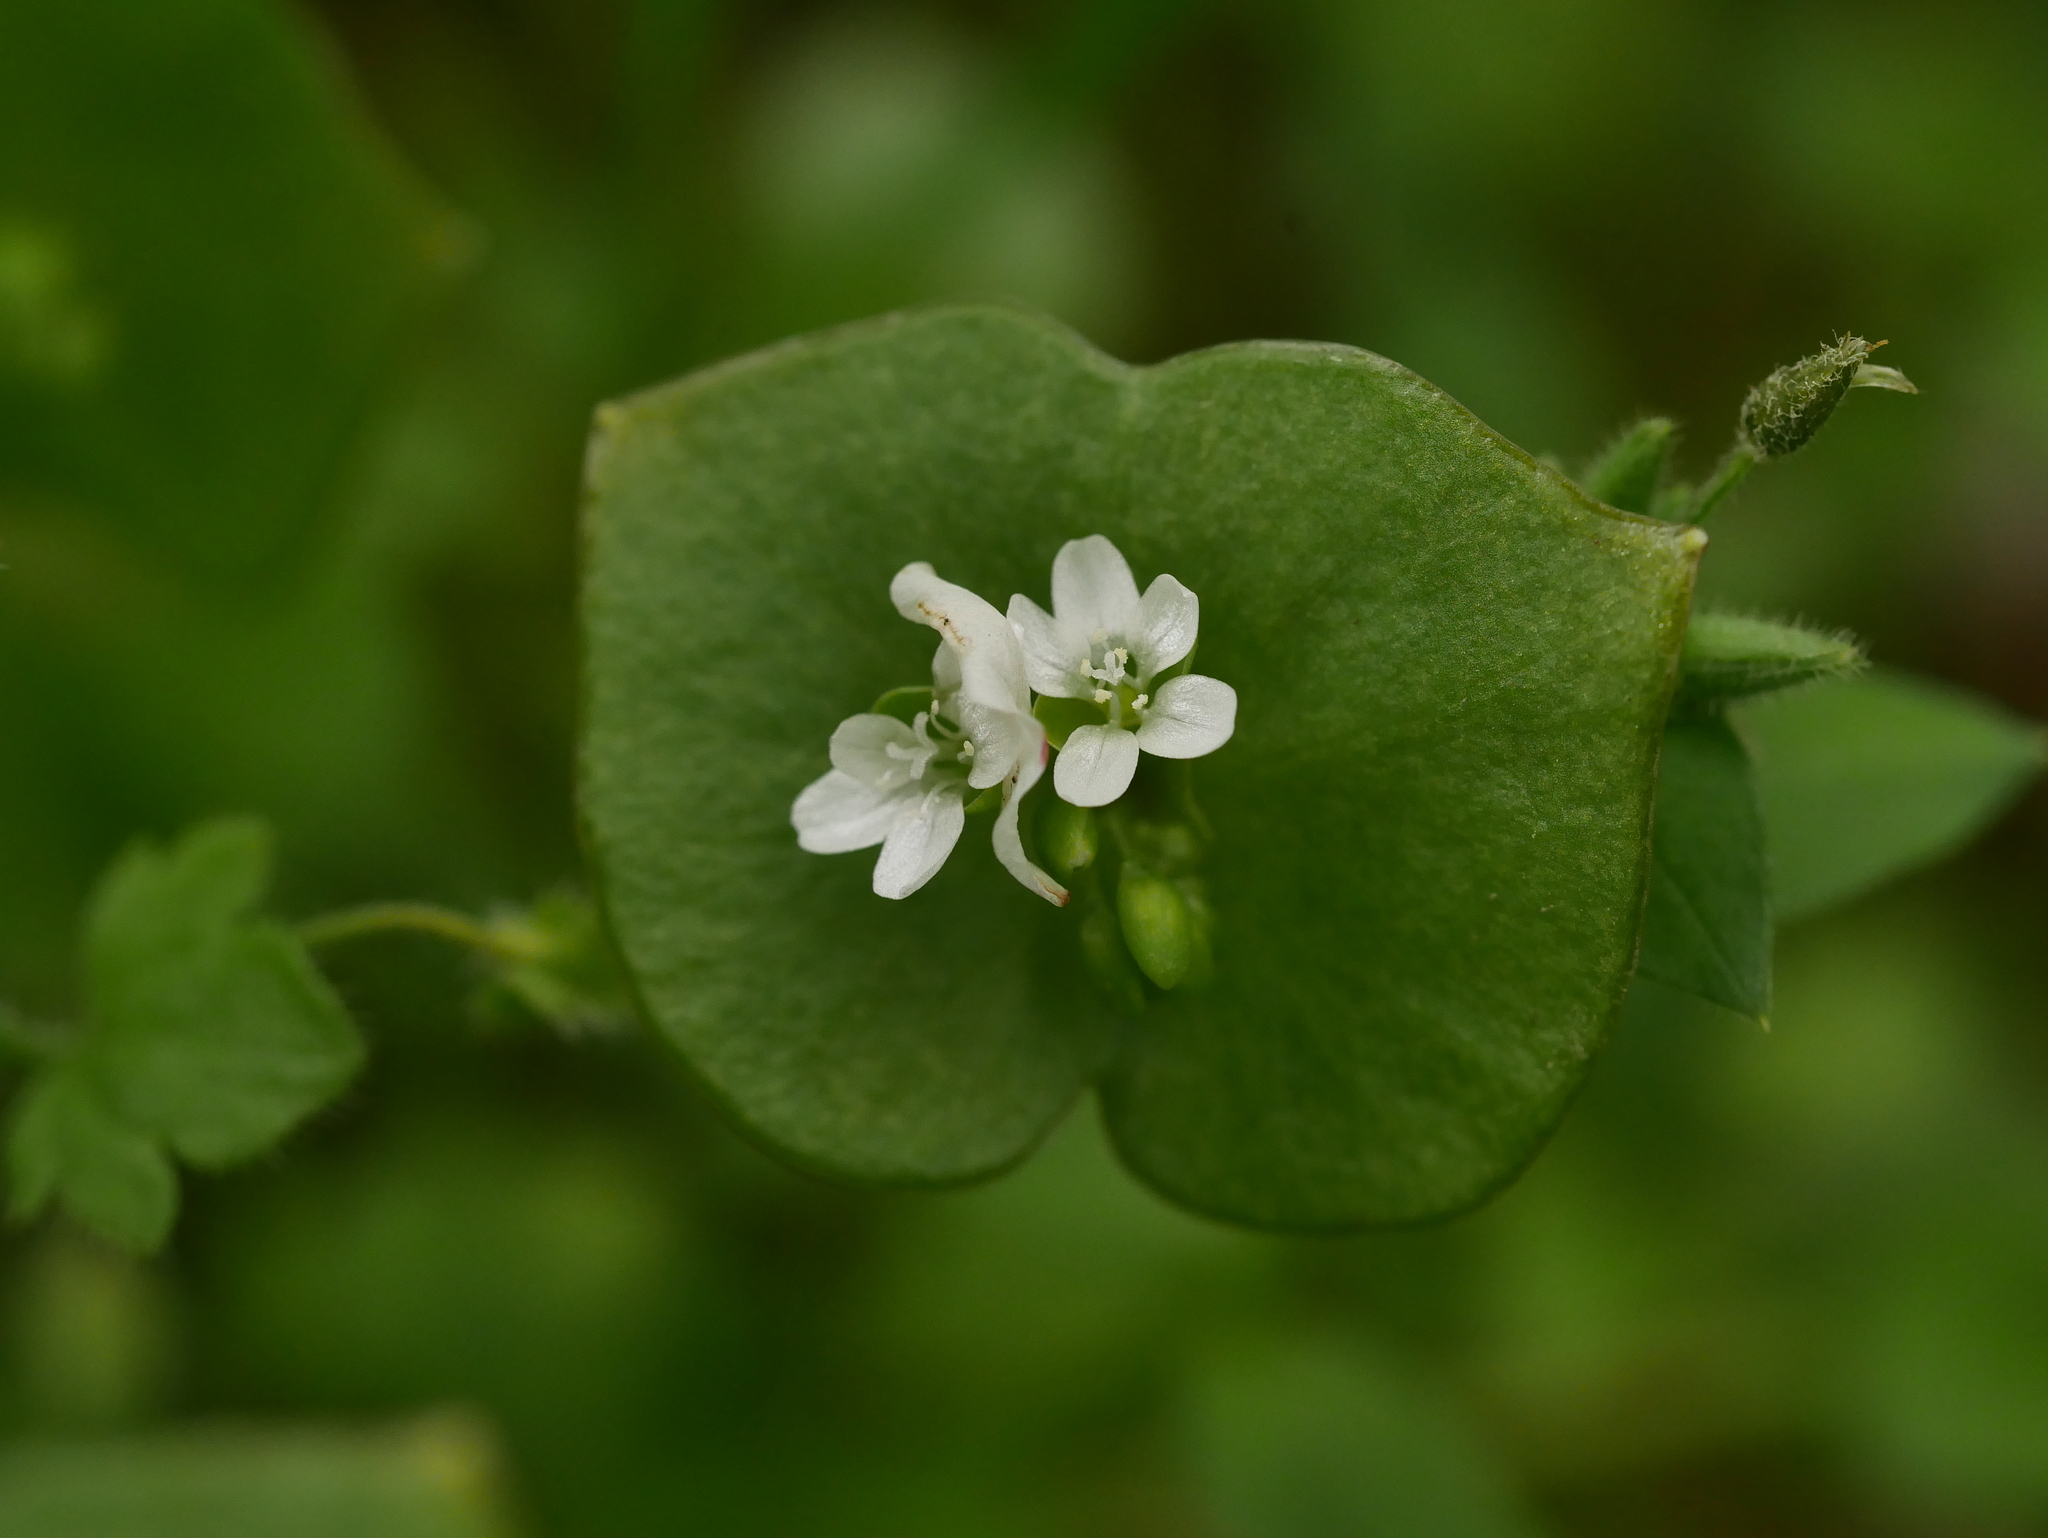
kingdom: Plantae
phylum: Tracheophyta
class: Magnoliopsida
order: Caryophyllales
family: Montiaceae
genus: Claytonia
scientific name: Claytonia perfoliata
